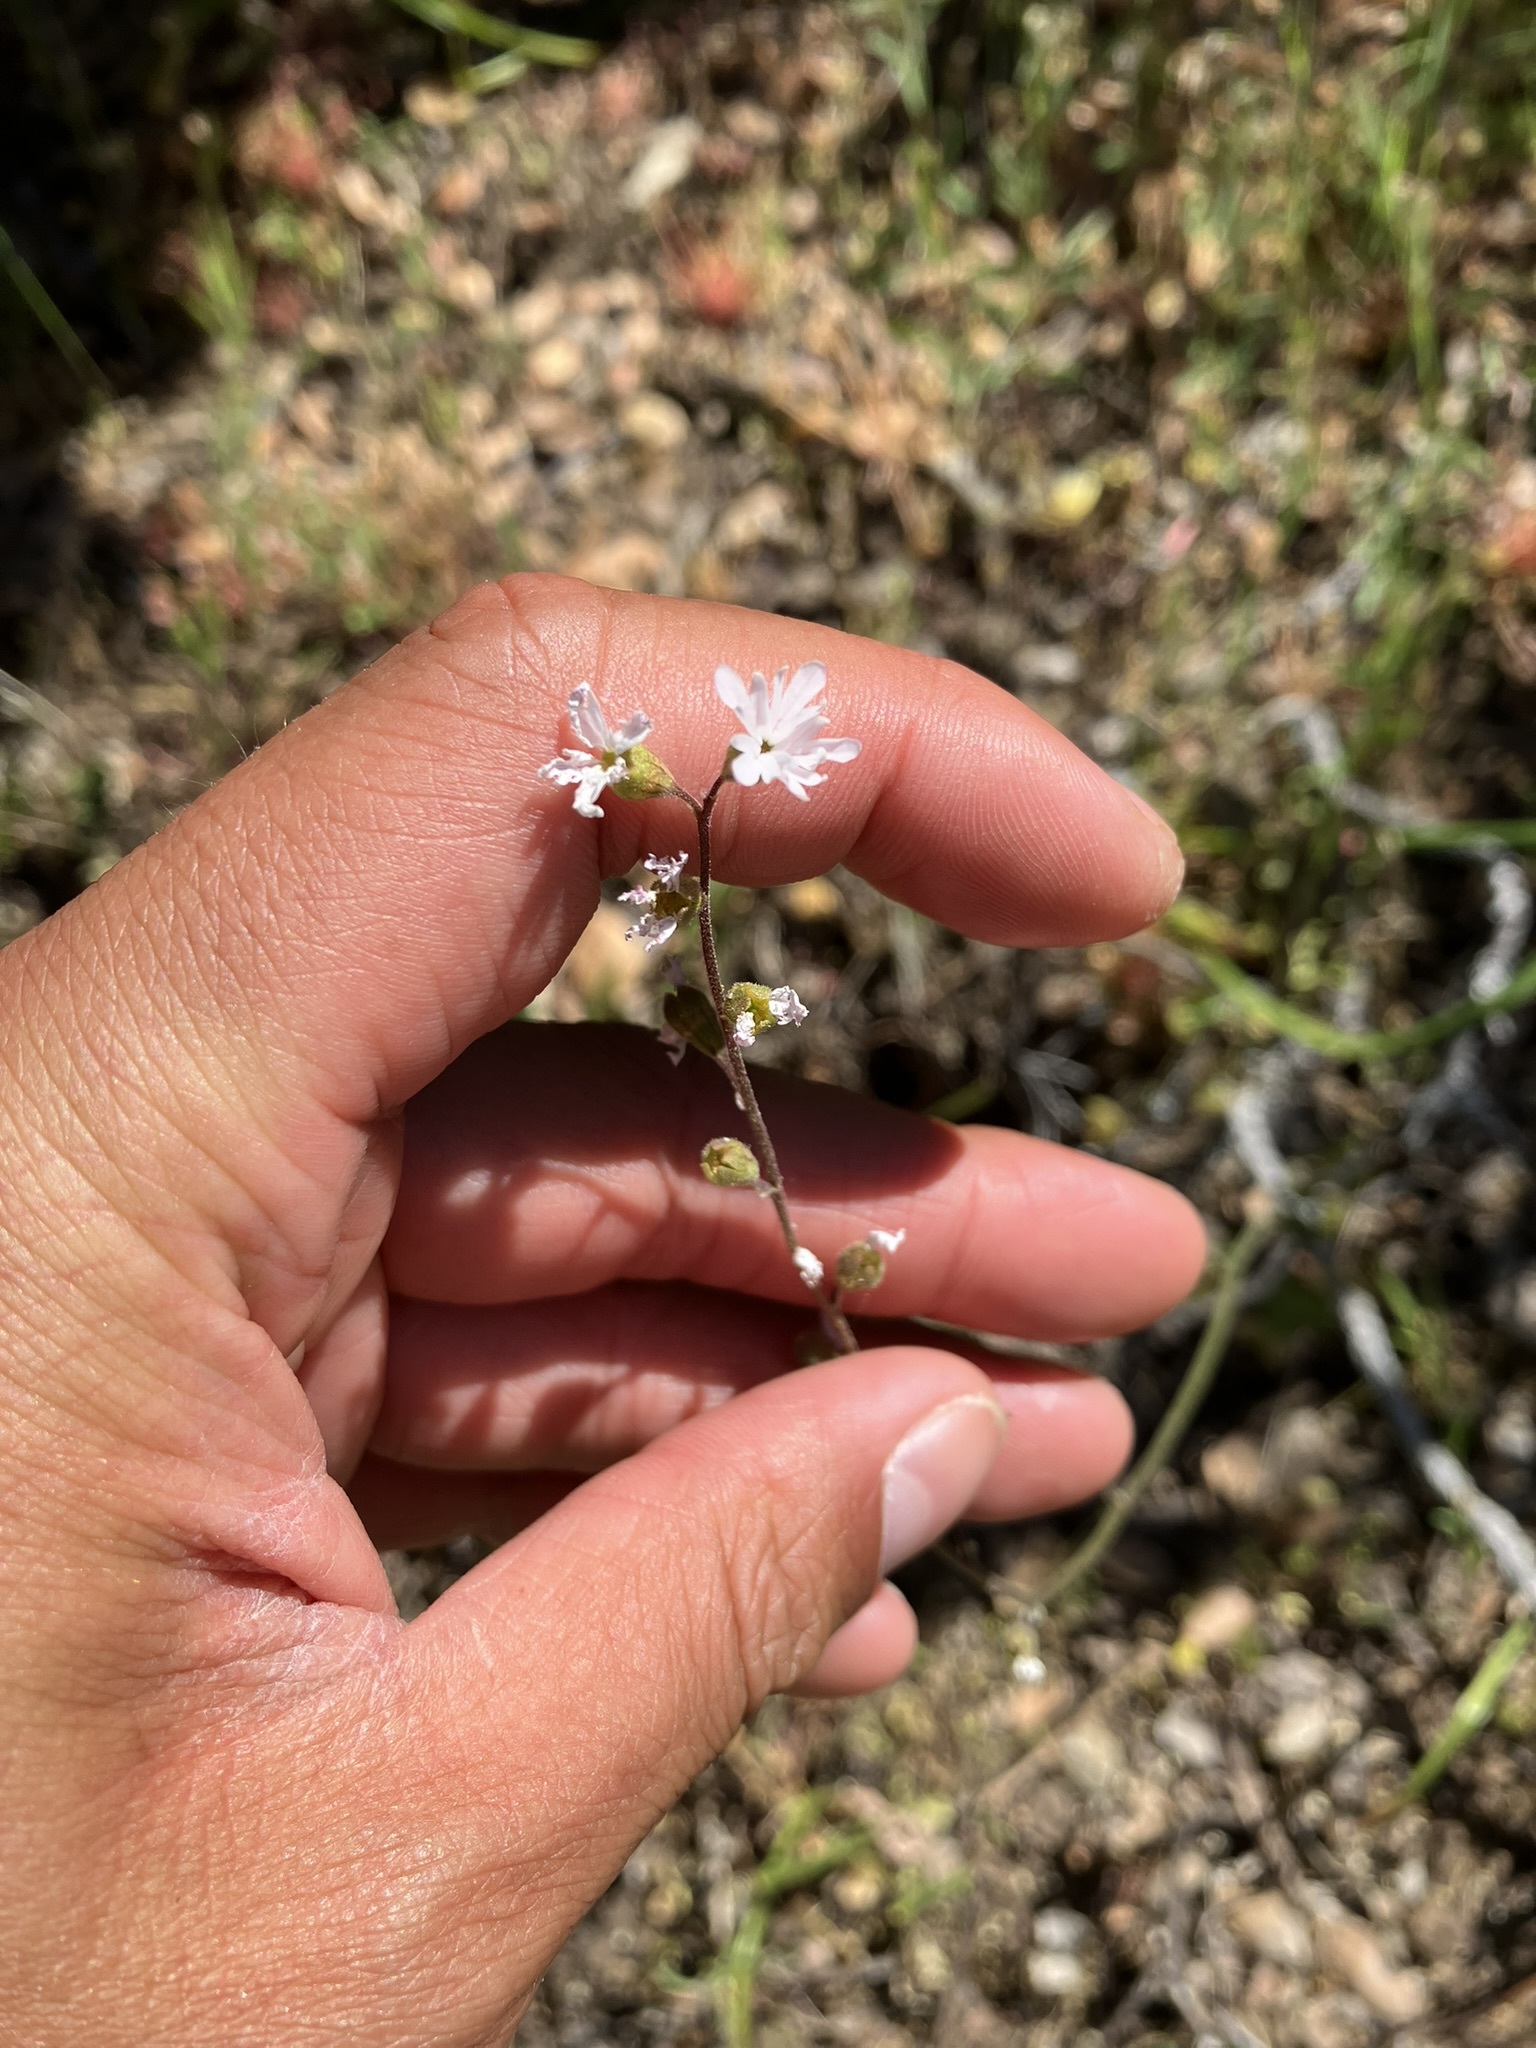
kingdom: Plantae
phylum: Tracheophyta
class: Magnoliopsida
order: Saxifragales
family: Saxifragaceae
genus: Lithophragma
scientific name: Lithophragma parviflorum
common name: Small-flowered fringe-cup
